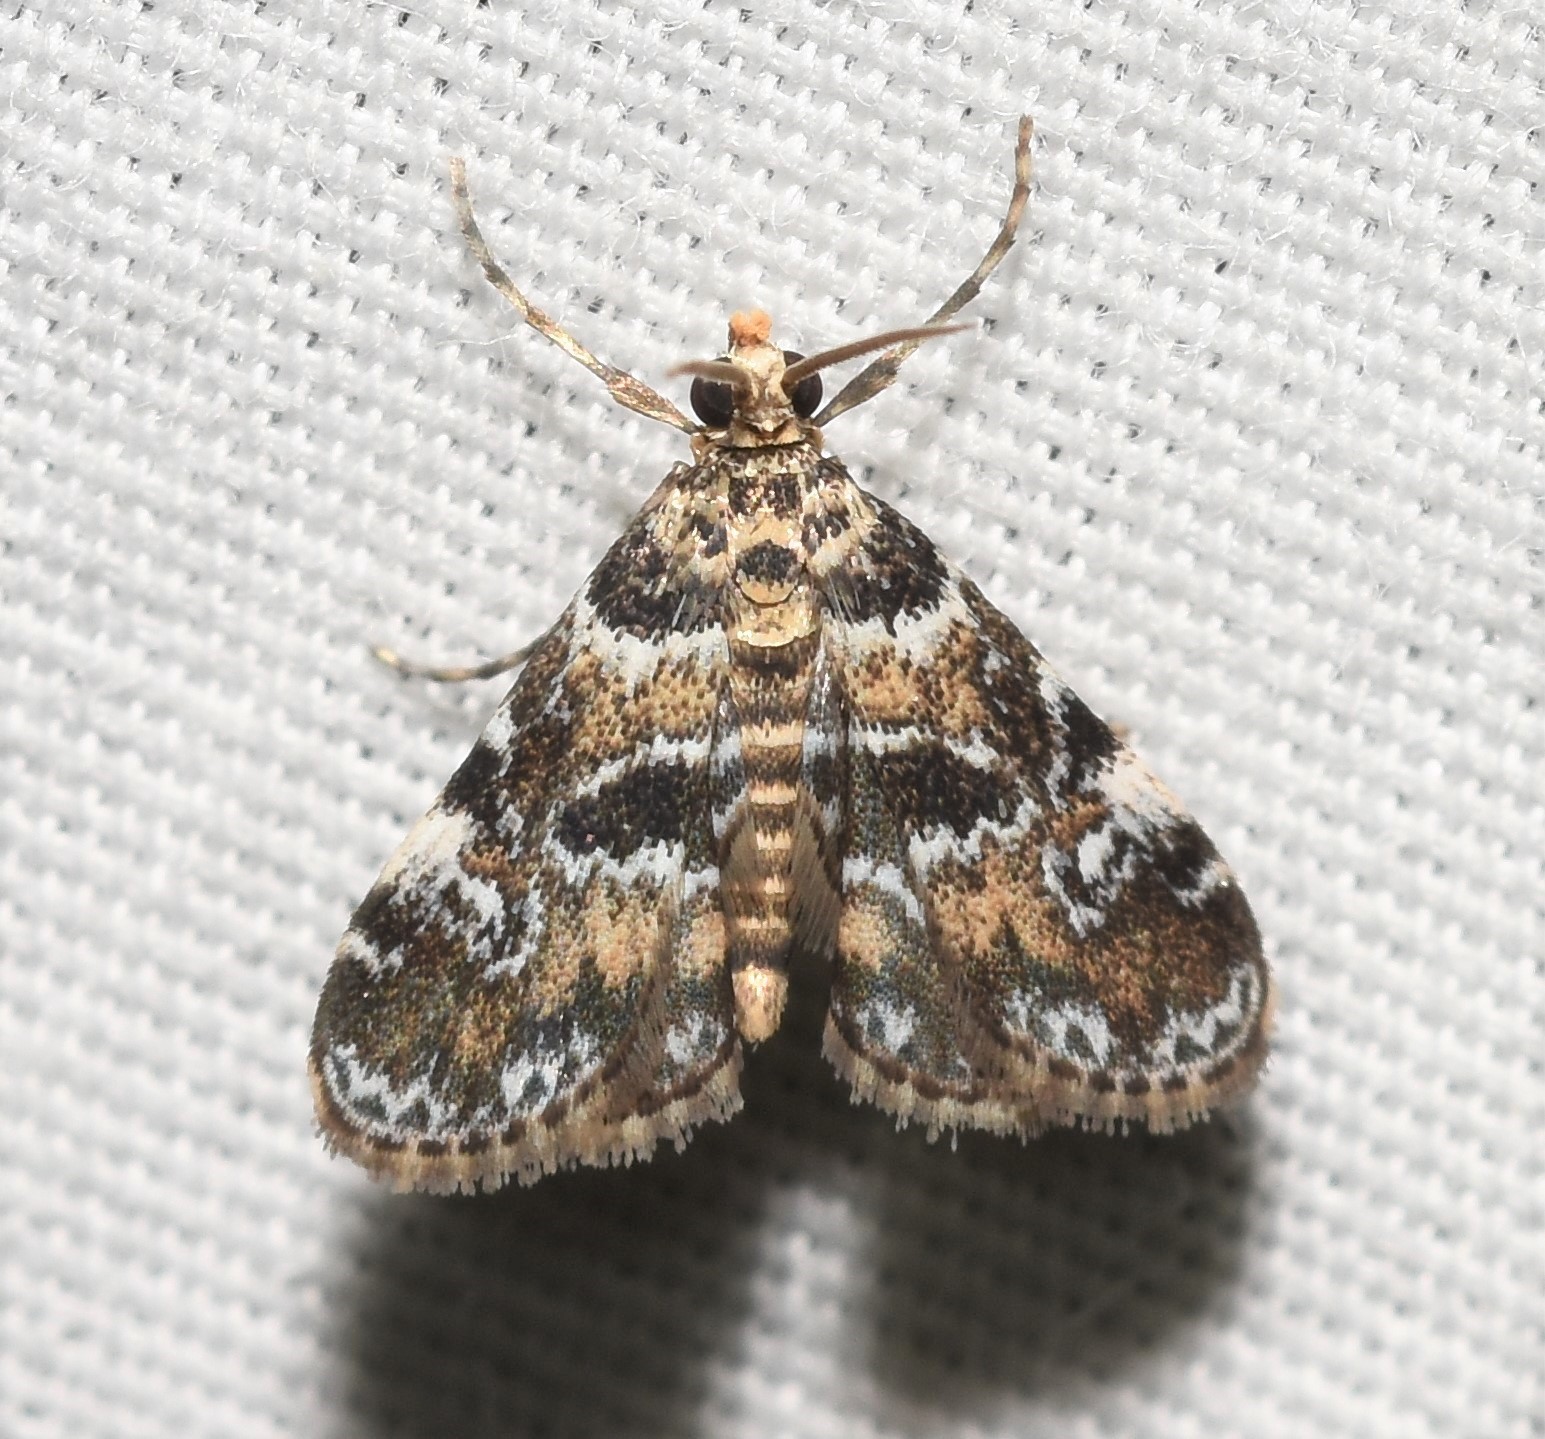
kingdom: Animalia
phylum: Arthropoda
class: Insecta
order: Lepidoptera
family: Crambidae
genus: Elophila
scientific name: Elophila obliteralis
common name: Waterlily leafcutter moth
